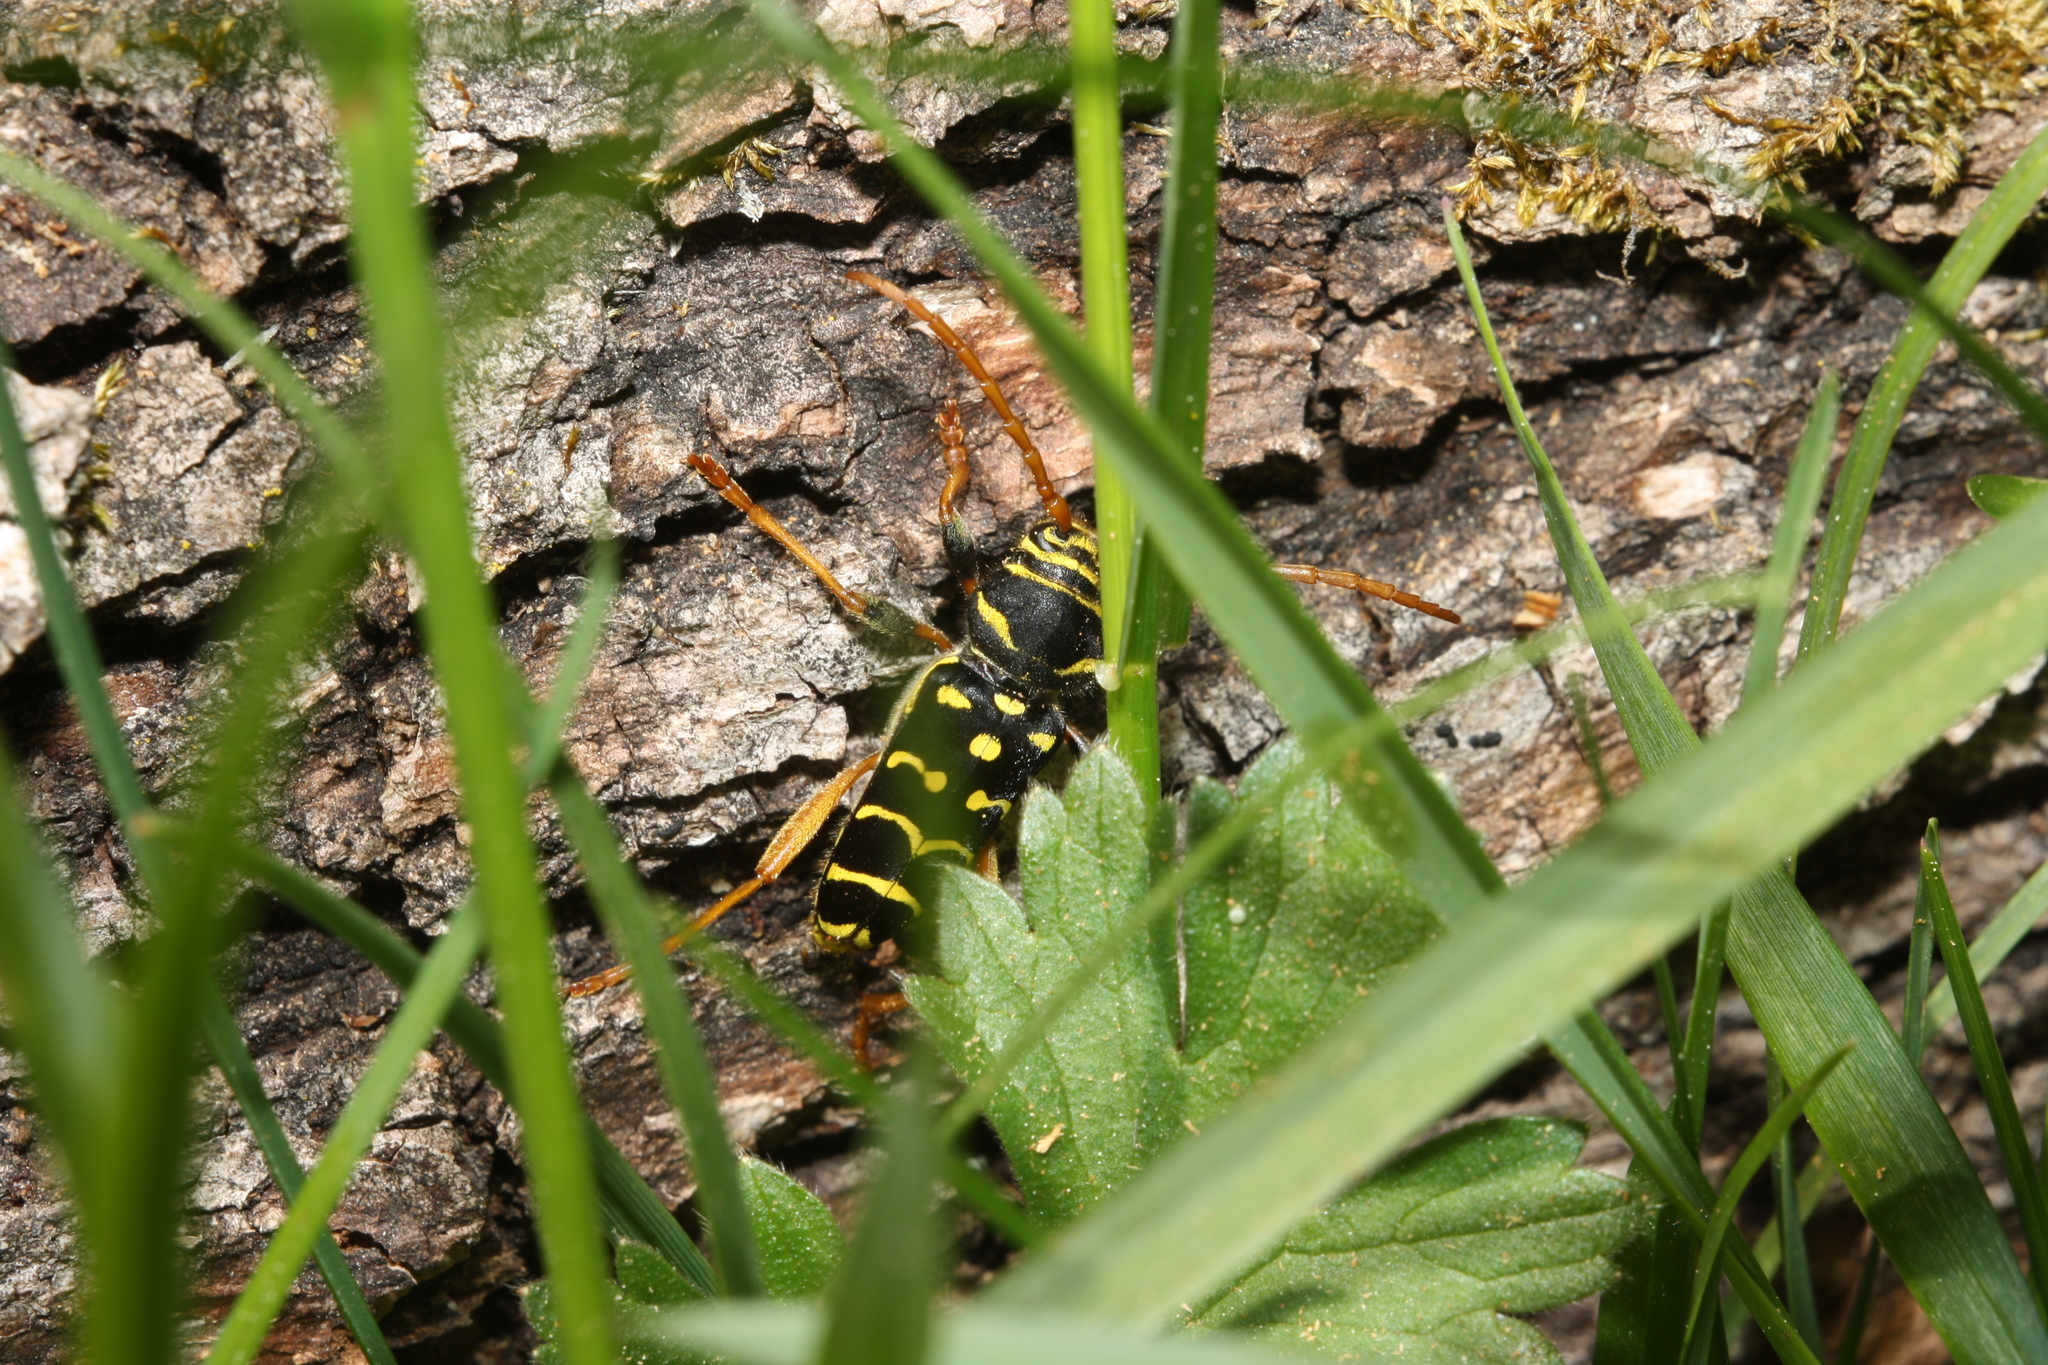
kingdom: Animalia
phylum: Arthropoda
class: Insecta
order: Coleoptera
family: Cerambycidae
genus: Plagionotus
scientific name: Plagionotus arcuatus
